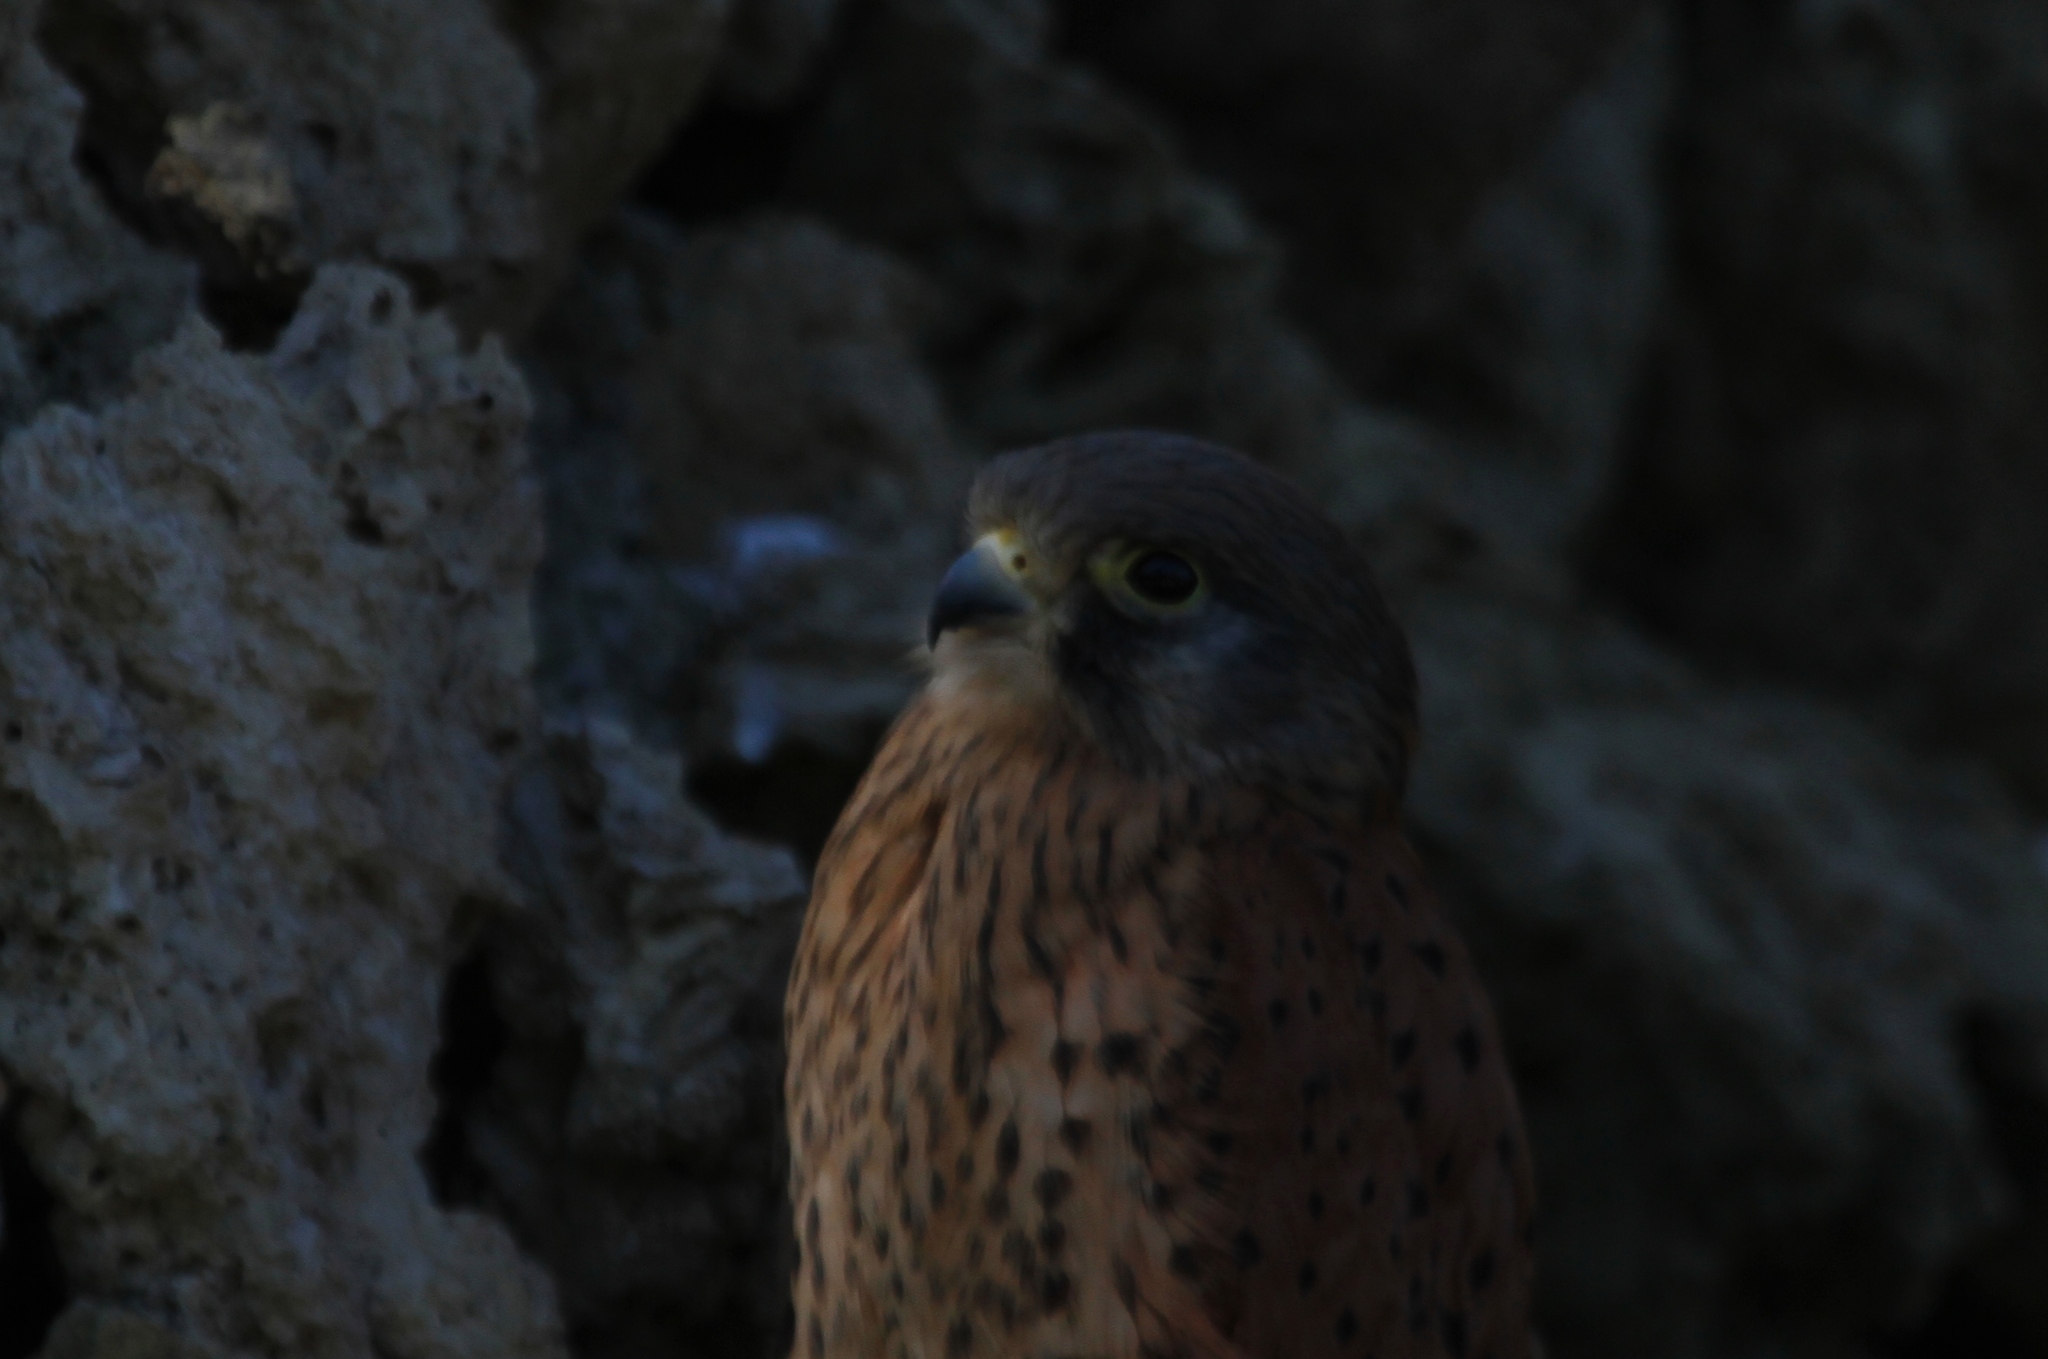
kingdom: Animalia
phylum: Chordata
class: Aves
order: Falconiformes
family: Falconidae
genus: Falco
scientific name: Falco tinnunculus
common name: Common kestrel
